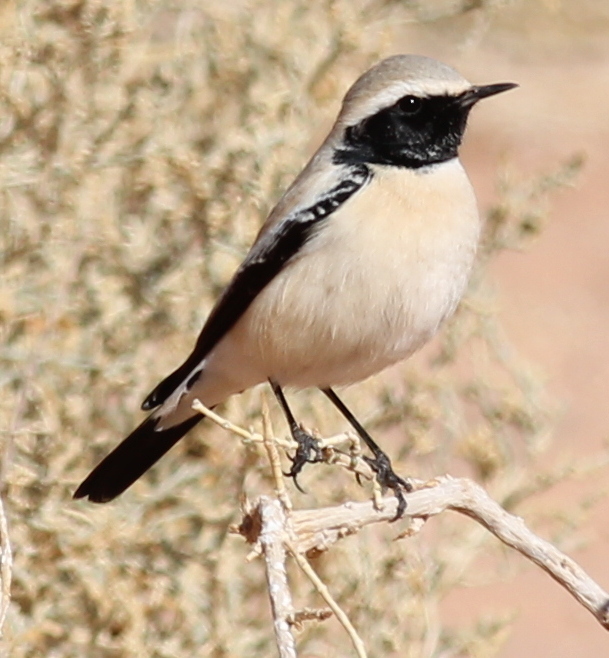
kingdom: Animalia
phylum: Chordata
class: Aves
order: Passeriformes
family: Muscicapidae
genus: Oenanthe
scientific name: Oenanthe deserti
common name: Desert wheatear
